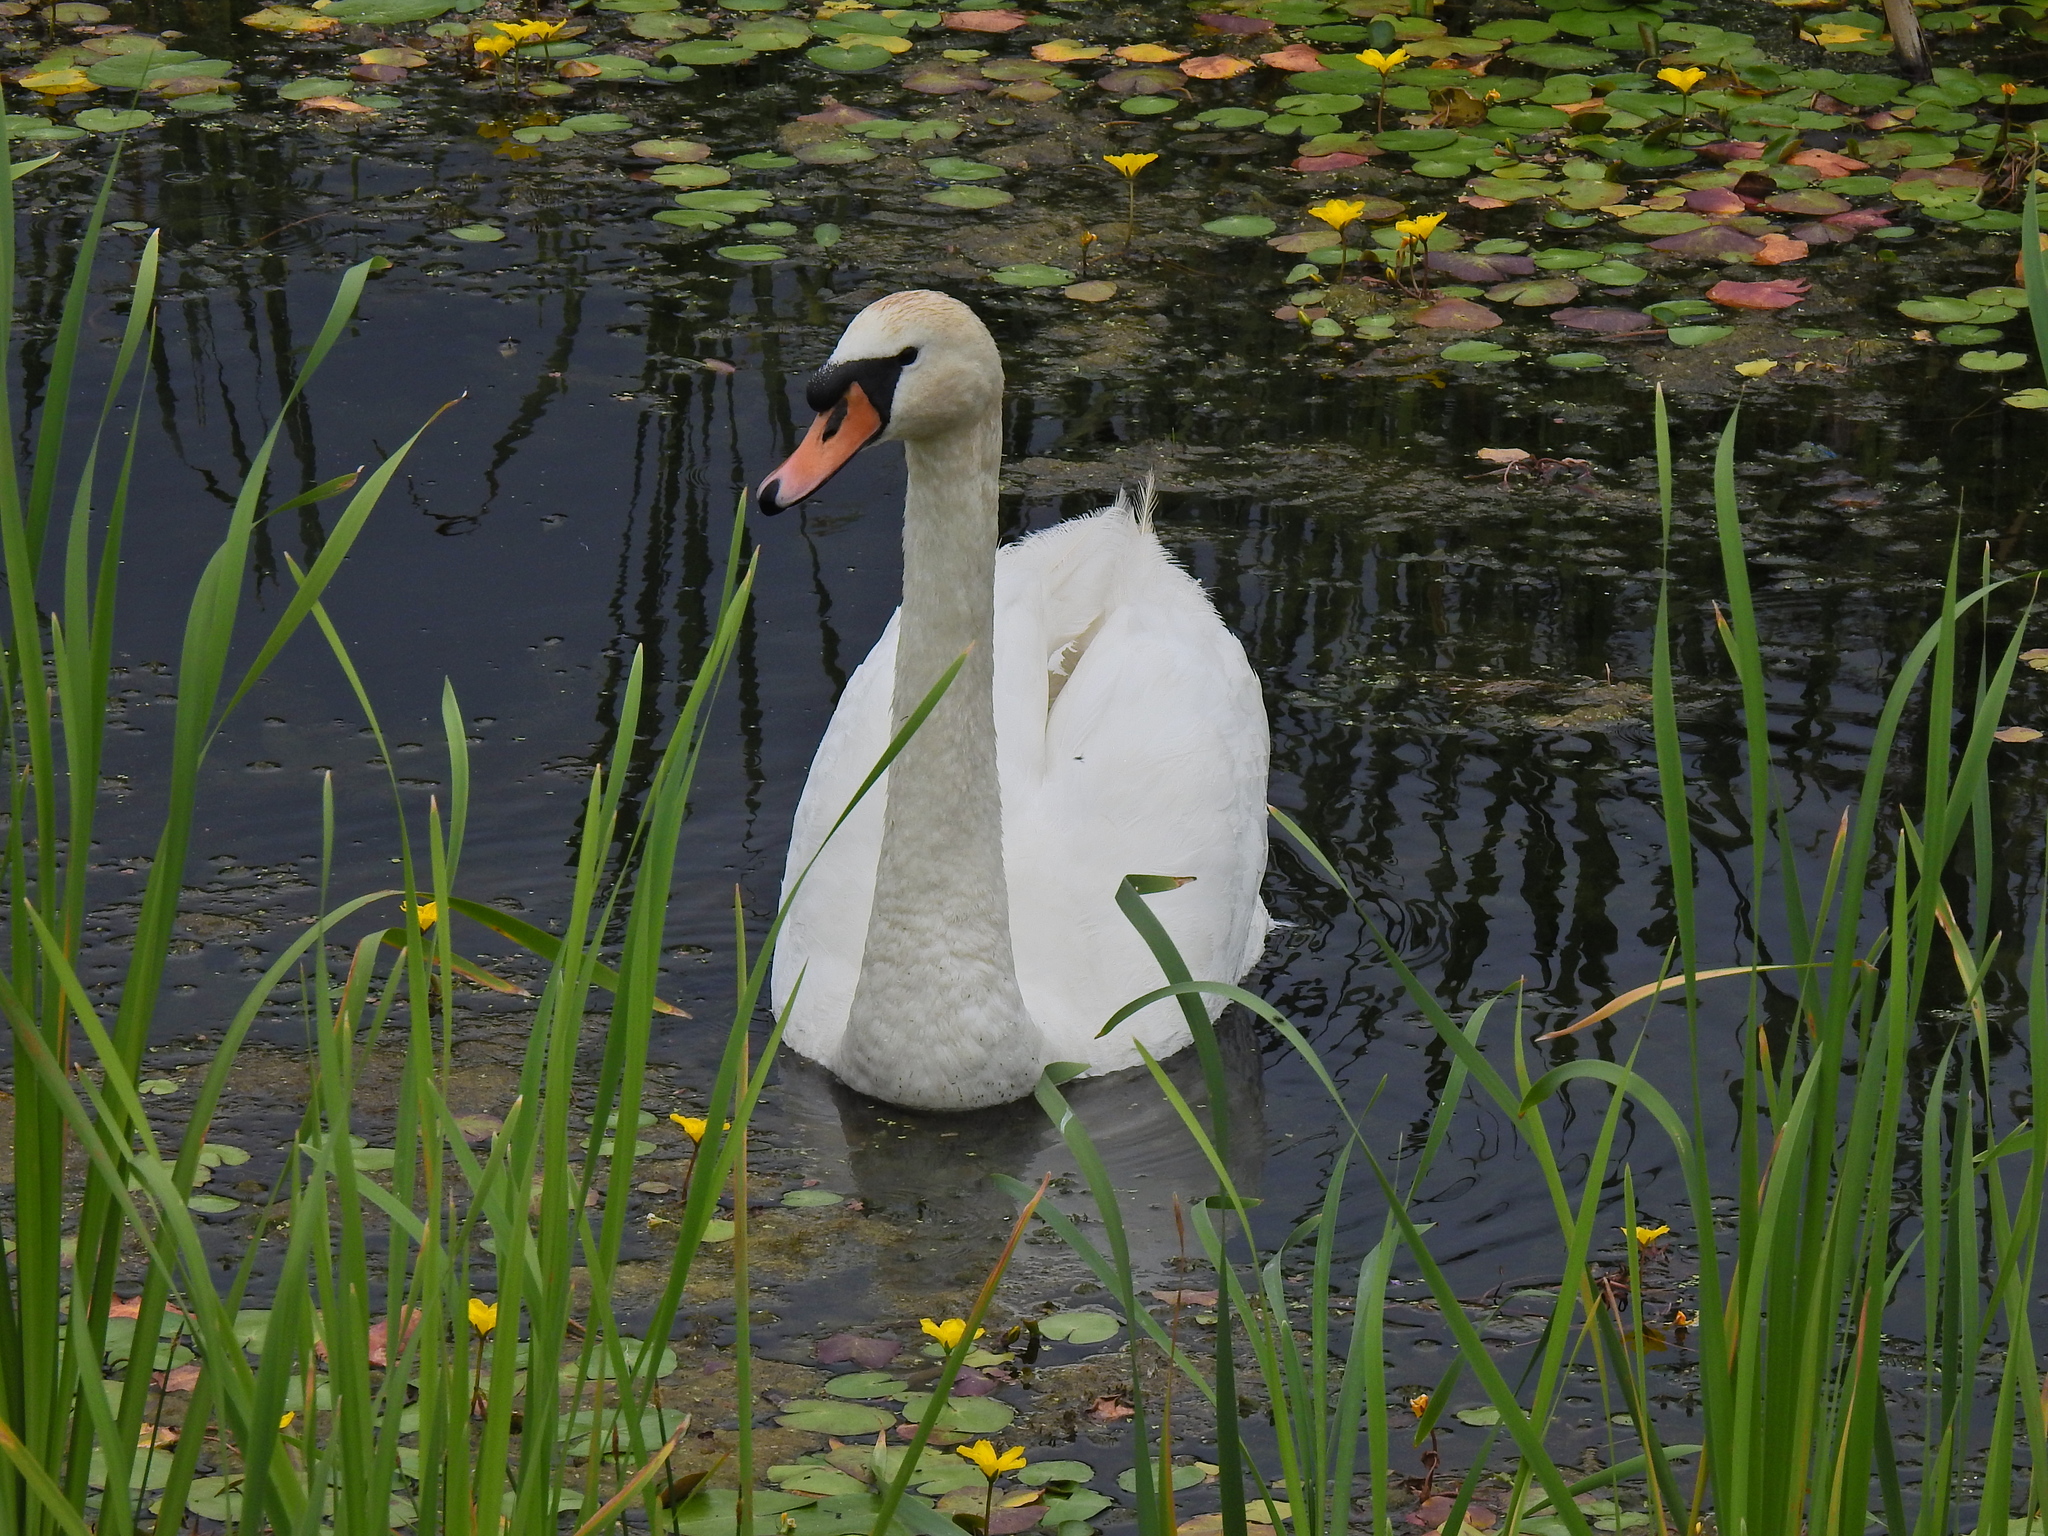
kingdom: Animalia
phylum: Chordata
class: Aves
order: Anseriformes
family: Anatidae
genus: Cygnus
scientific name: Cygnus olor
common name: Mute swan
